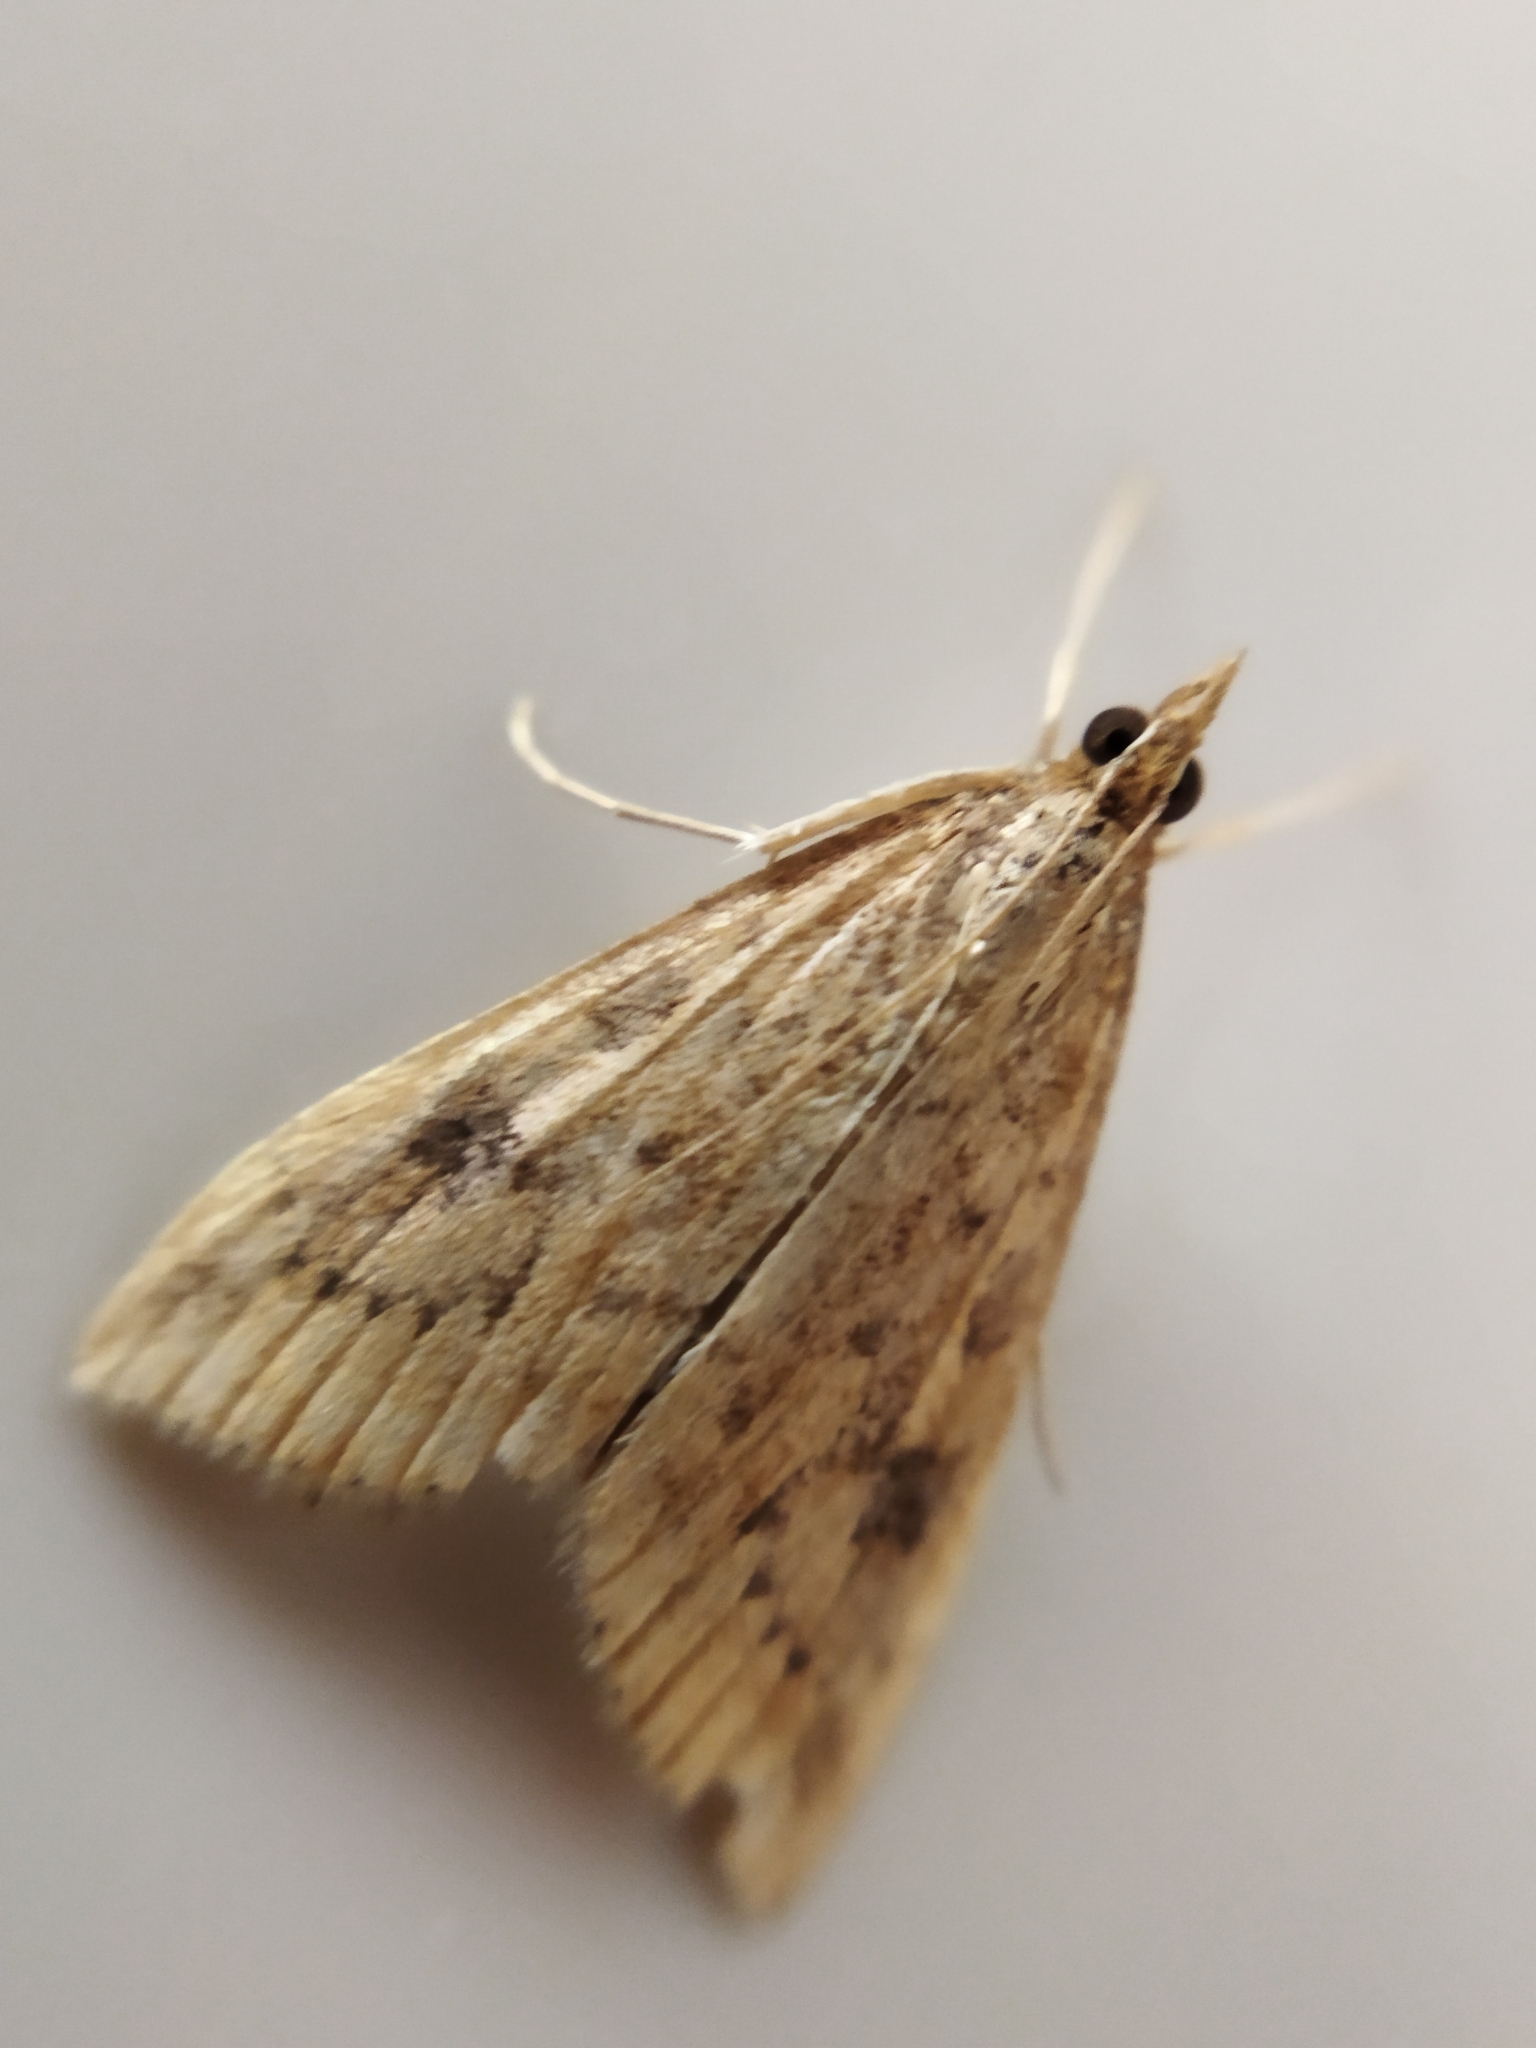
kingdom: Animalia
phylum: Arthropoda
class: Insecta
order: Lepidoptera
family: Crambidae
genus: Udea
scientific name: Udea ferrugalis
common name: Rusty dot
